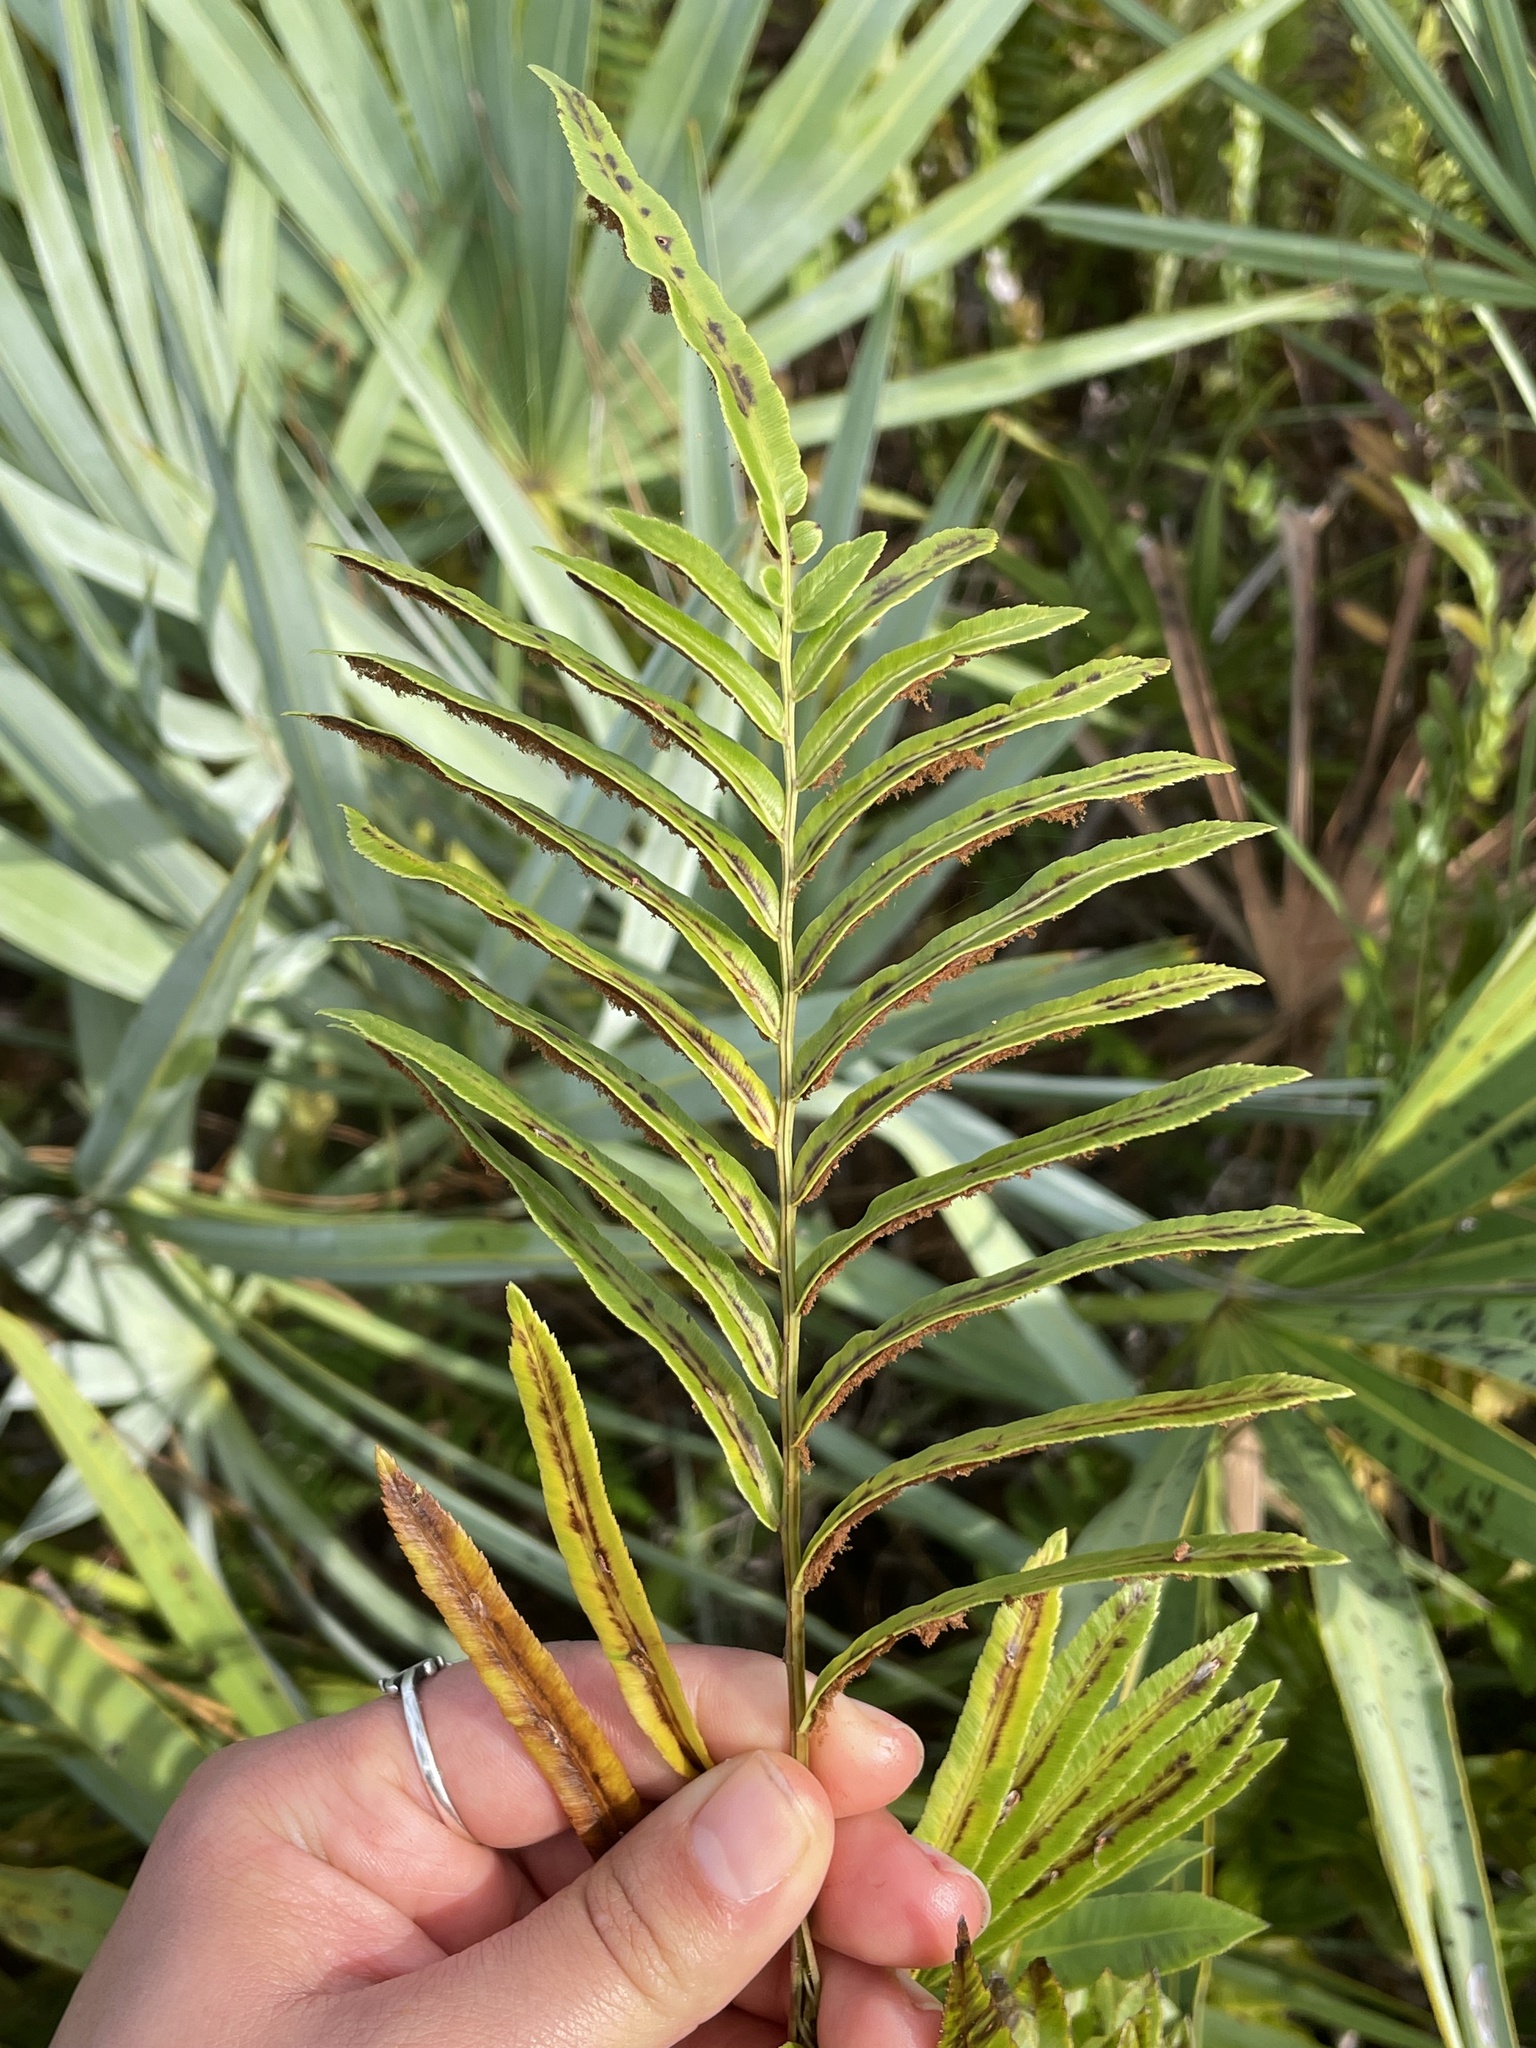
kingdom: Plantae
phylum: Tracheophyta
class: Polypodiopsida
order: Polypodiales
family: Blechnaceae
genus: Telmatoblechnum
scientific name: Telmatoblechnum serrulatum
